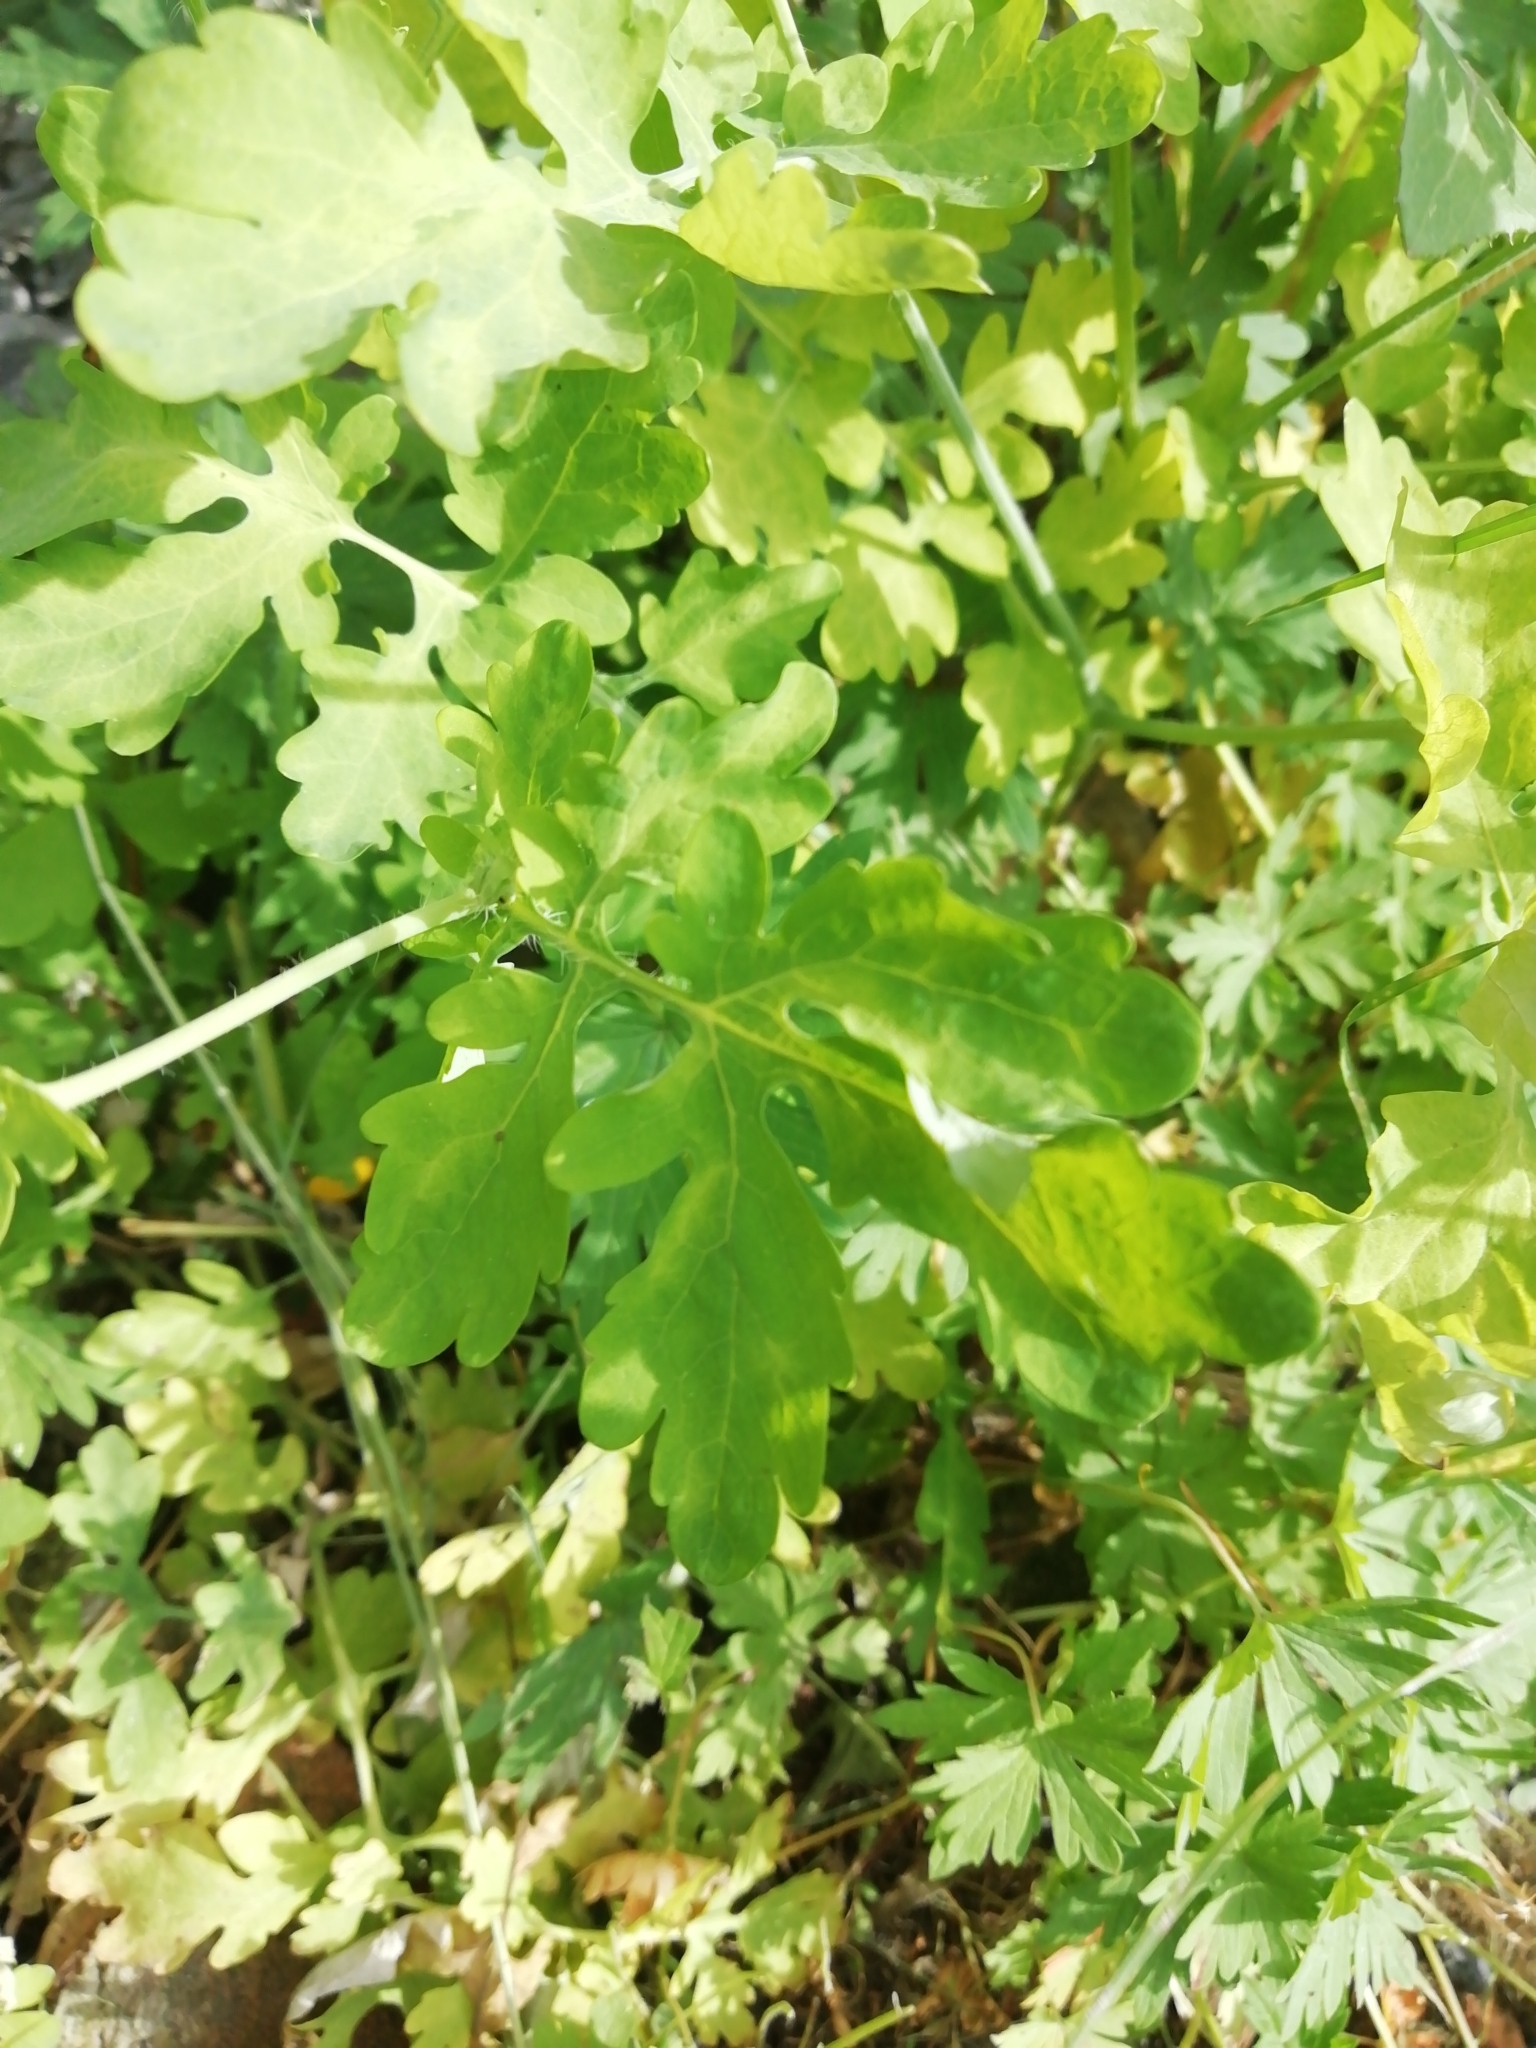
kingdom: Plantae
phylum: Tracheophyta
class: Magnoliopsida
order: Ranunculales
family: Papaveraceae
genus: Chelidonium
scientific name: Chelidonium majus
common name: Greater celandine
